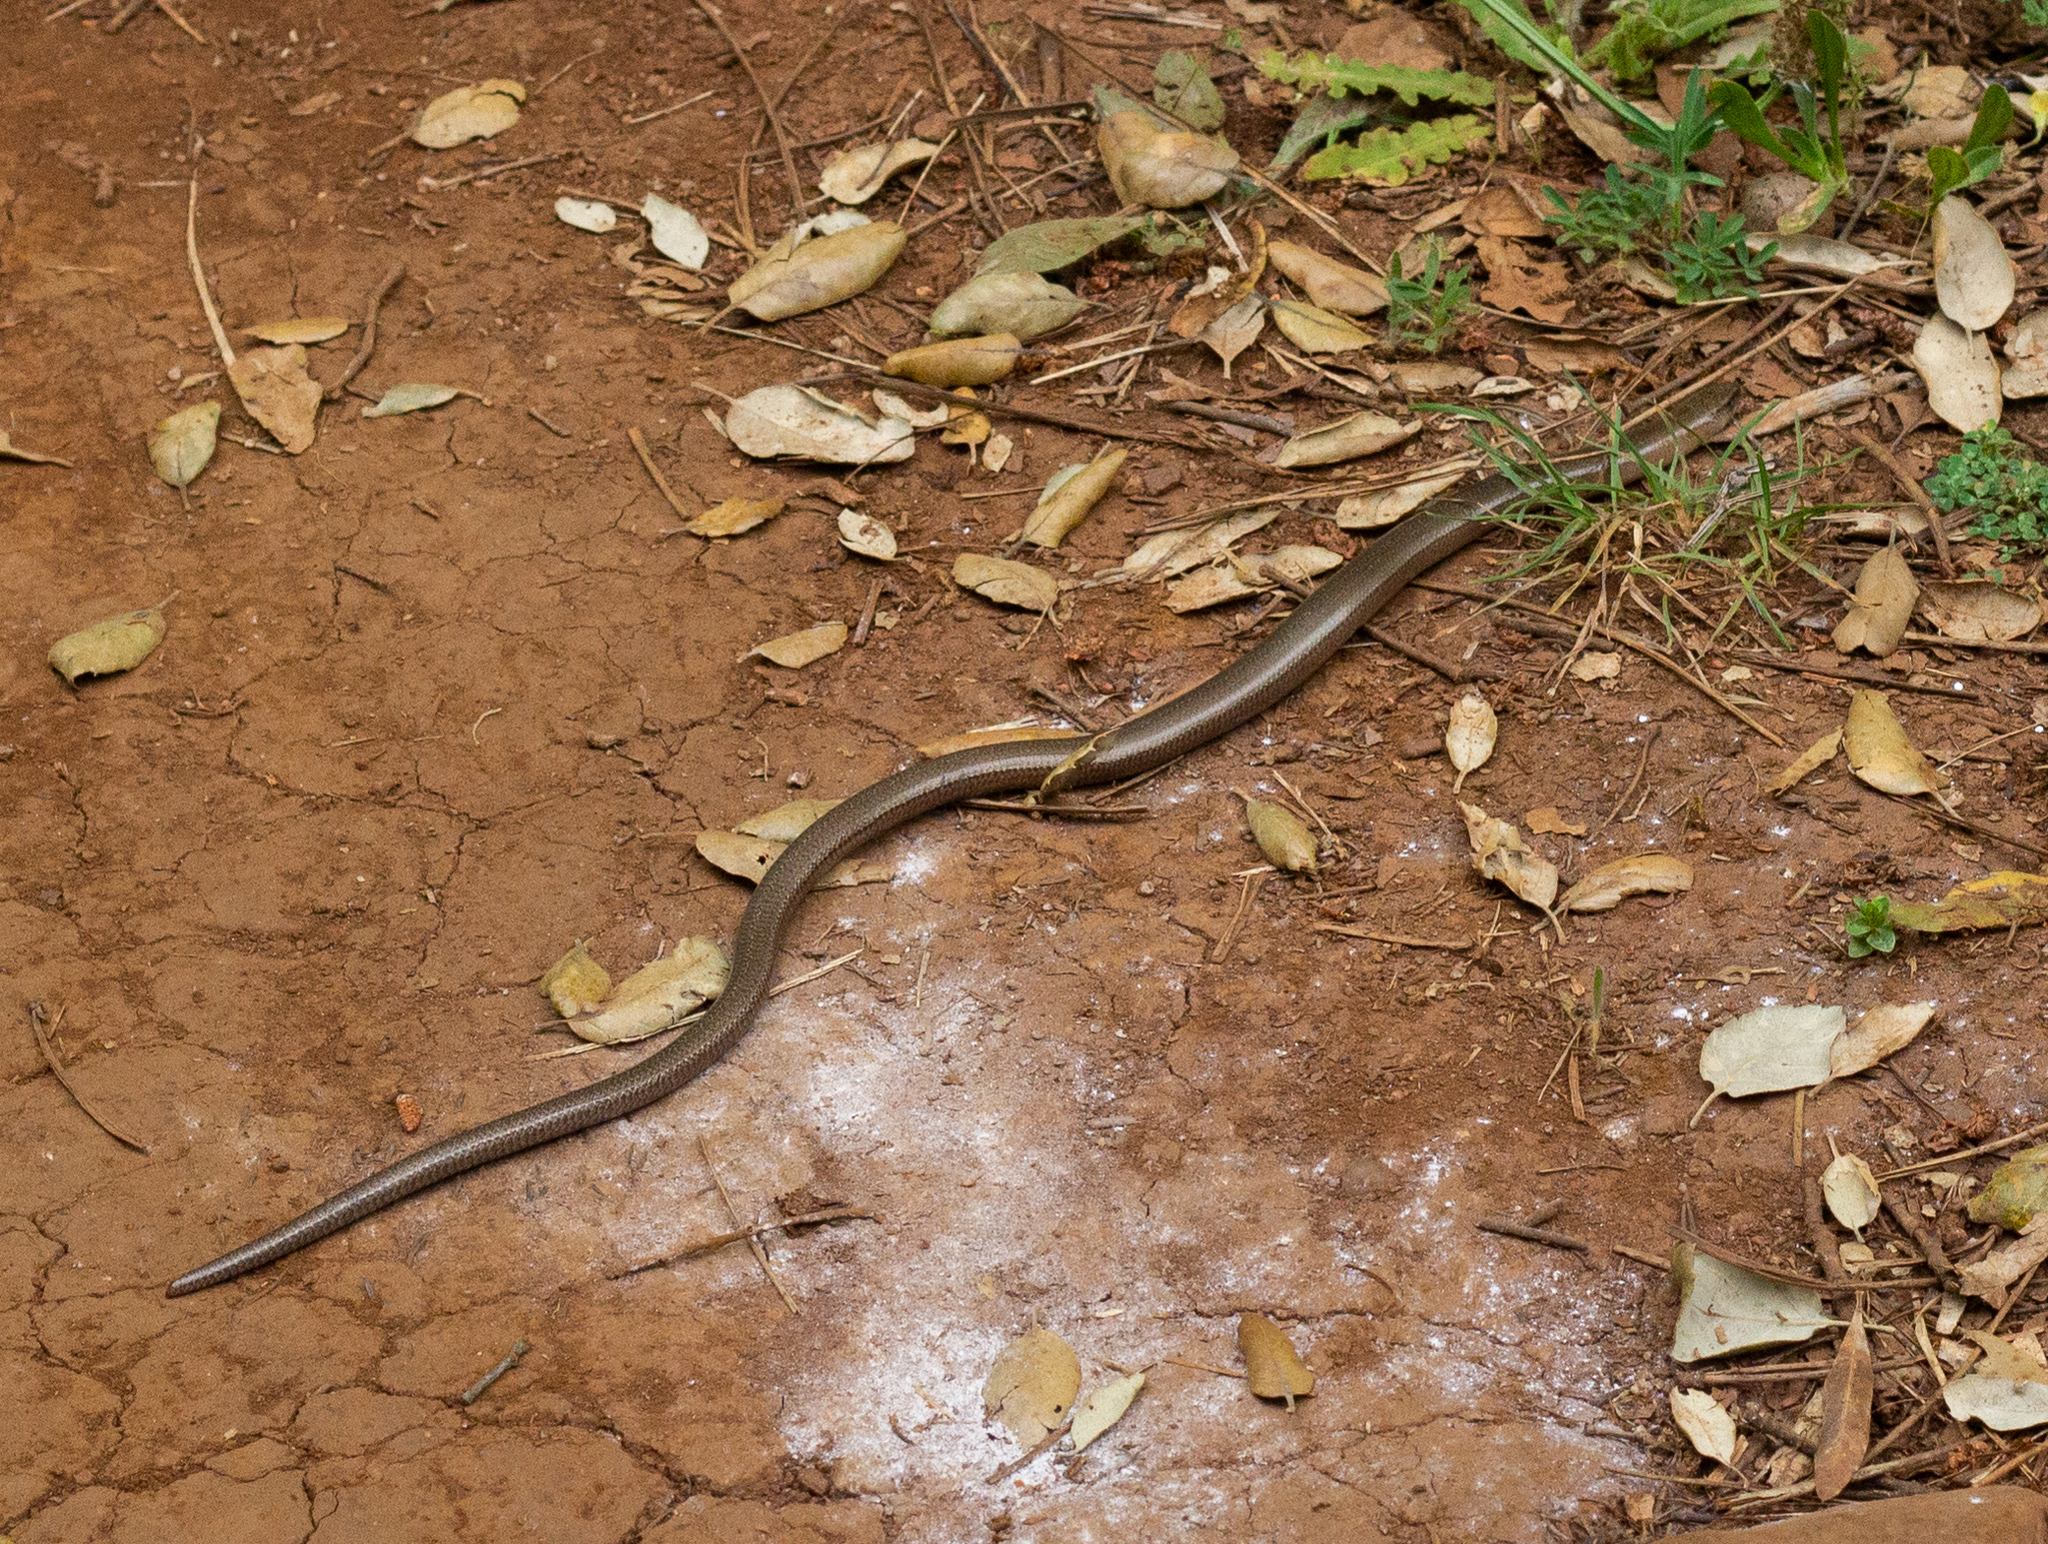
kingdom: Animalia
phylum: Chordata
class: Squamata
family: Anguidae
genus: Anguis
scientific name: Anguis fragilis
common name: Slow worm
